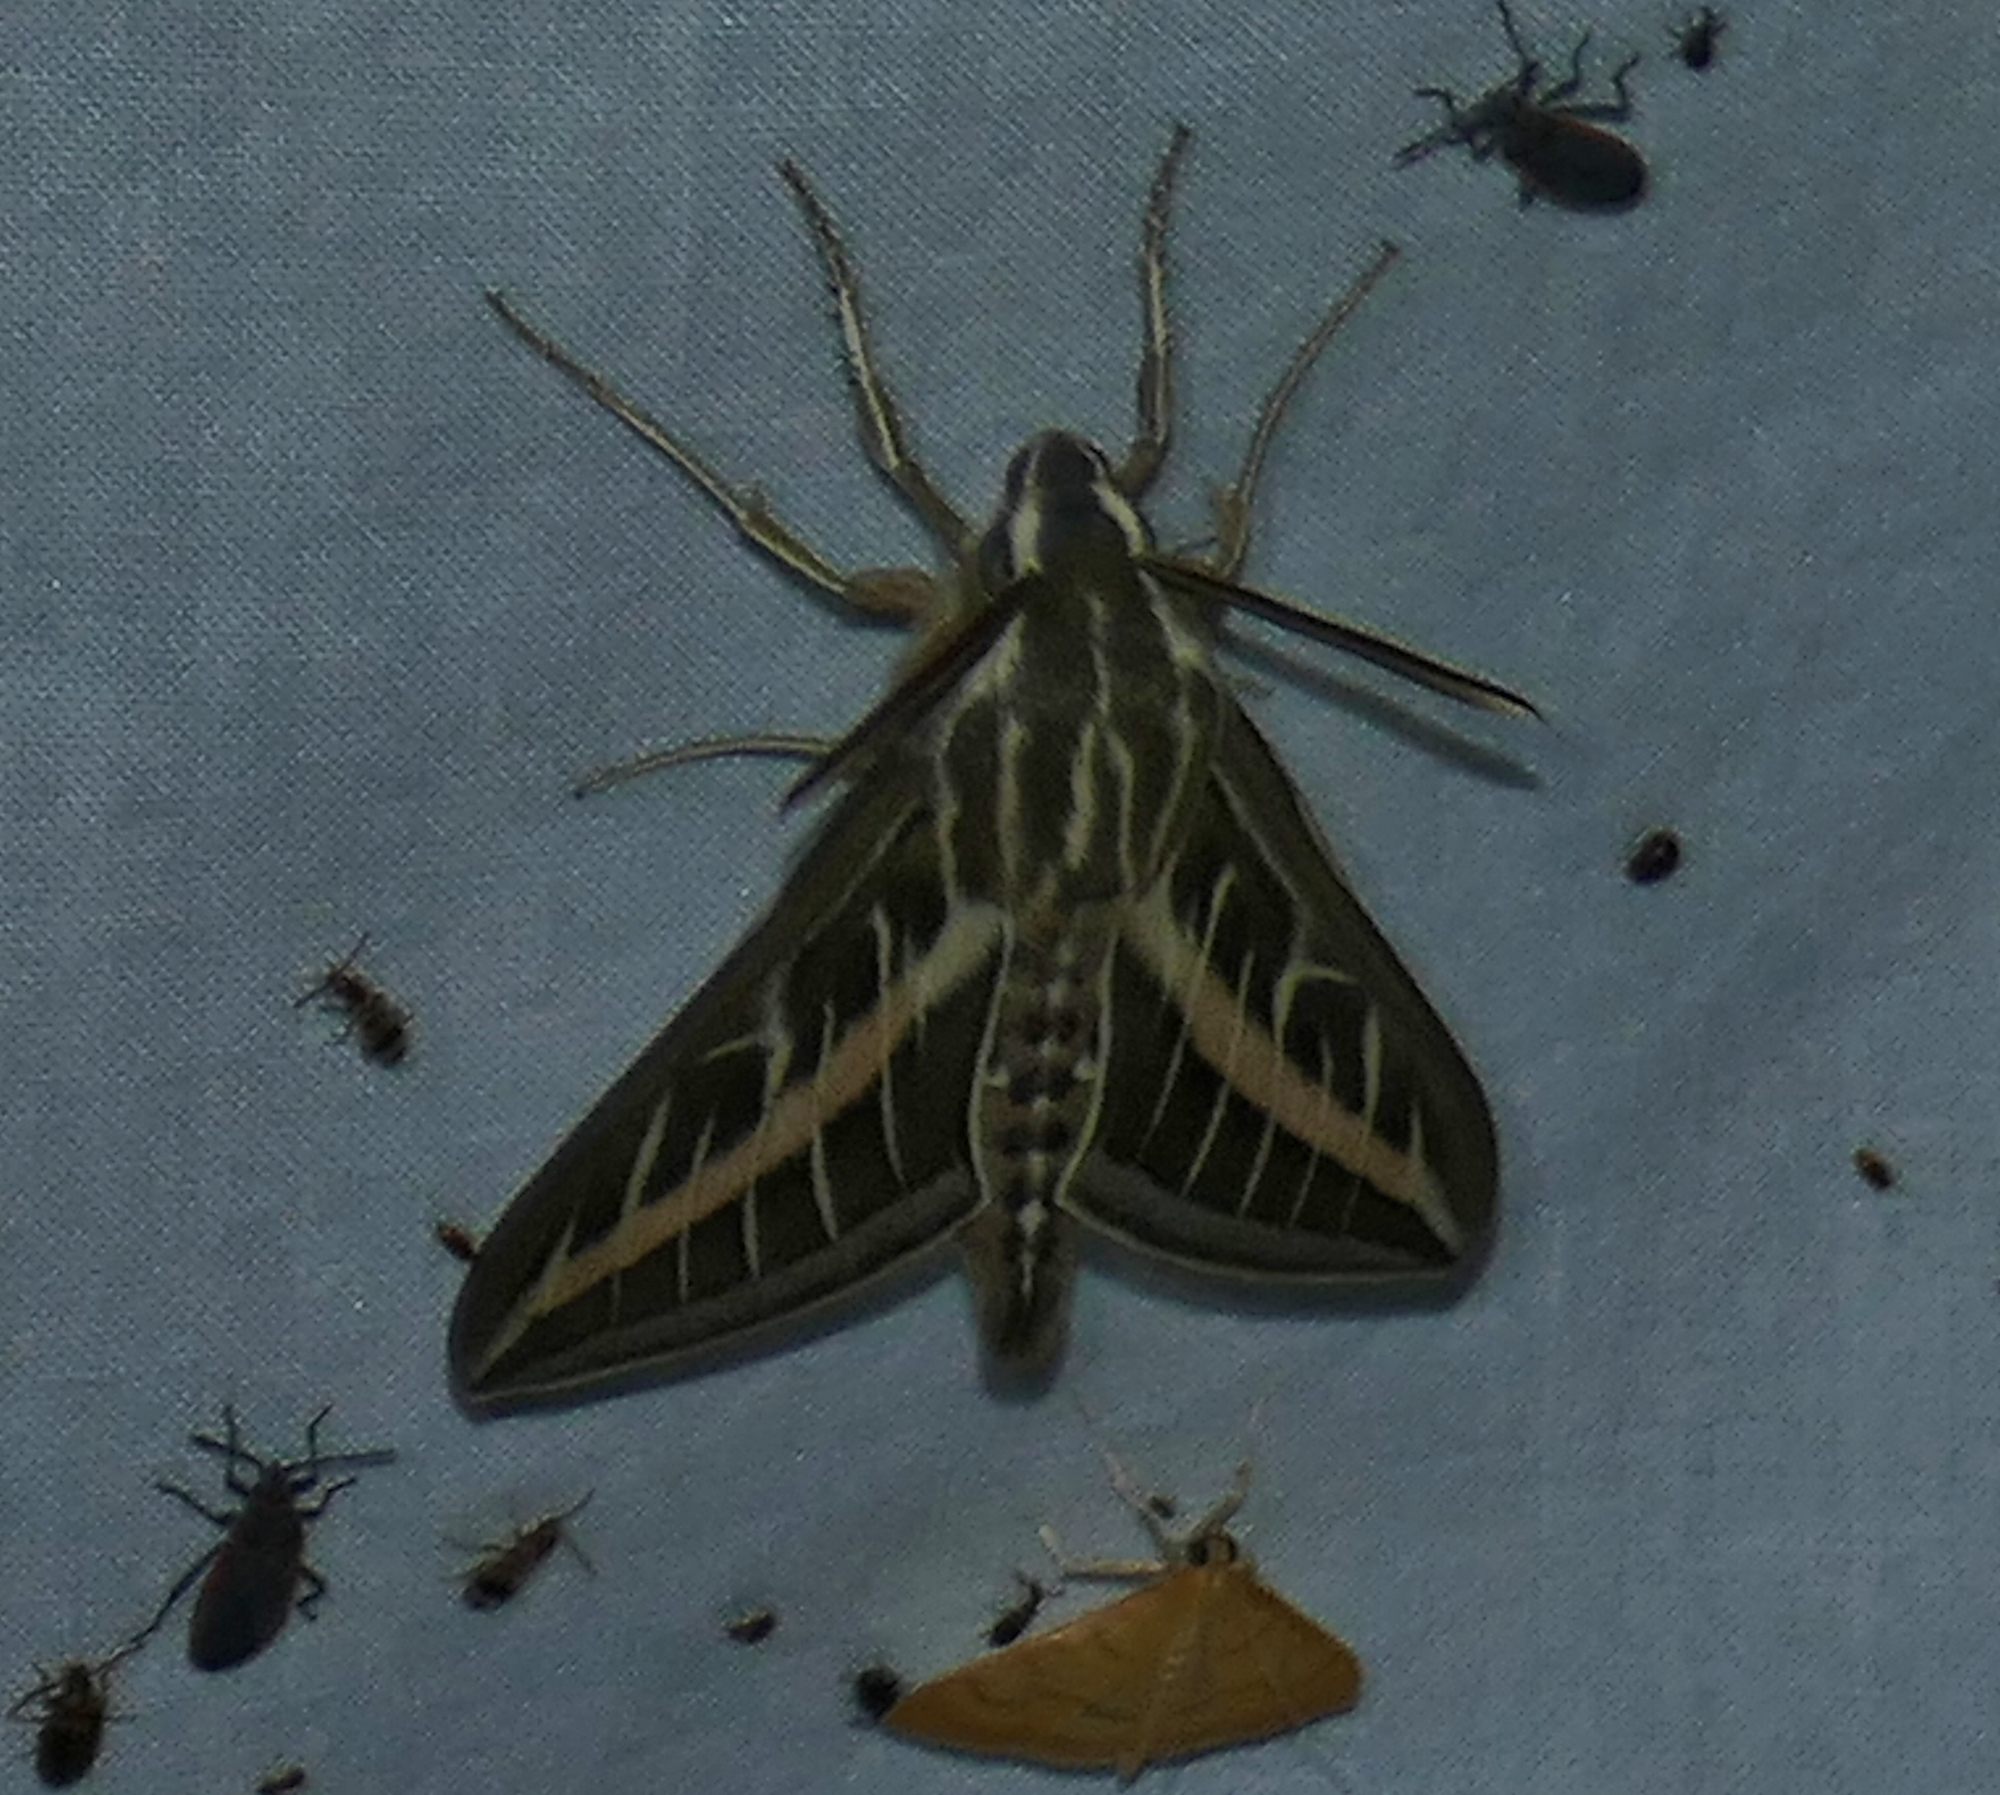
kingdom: Animalia
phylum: Arthropoda
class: Insecta
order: Lepidoptera
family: Sphingidae
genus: Hyles
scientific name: Hyles lineata
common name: White-lined sphinx
